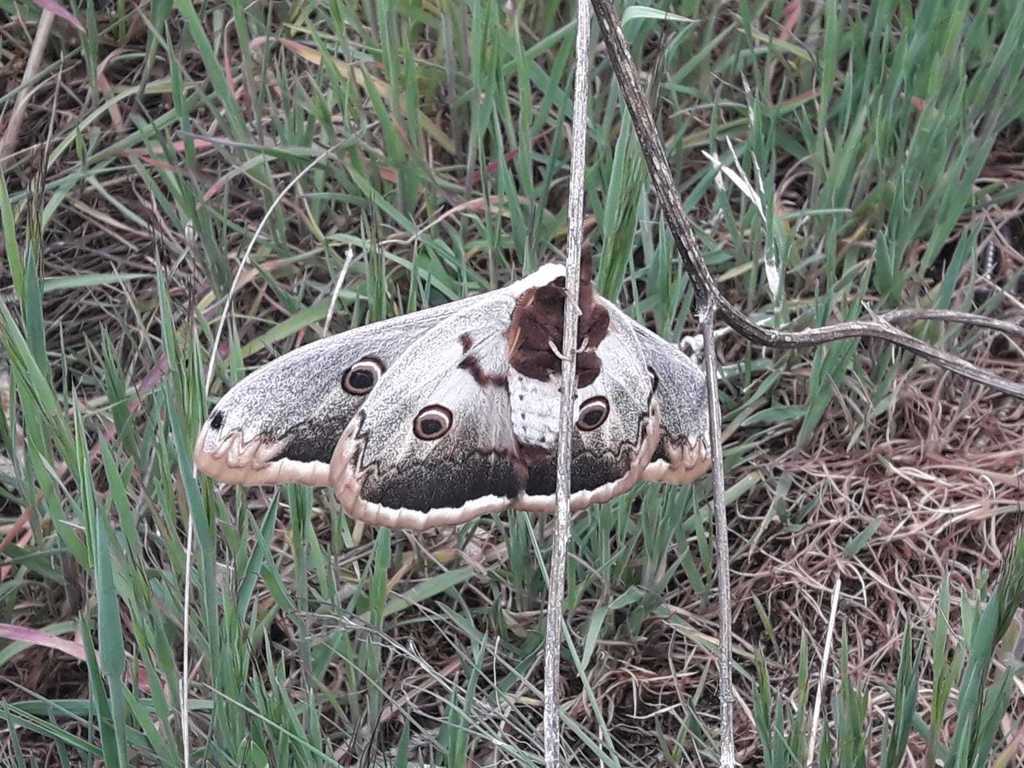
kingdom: Animalia
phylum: Arthropoda
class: Insecta
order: Lepidoptera
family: Saturniidae
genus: Saturnia
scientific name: Saturnia pyri
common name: Great peacock moth
